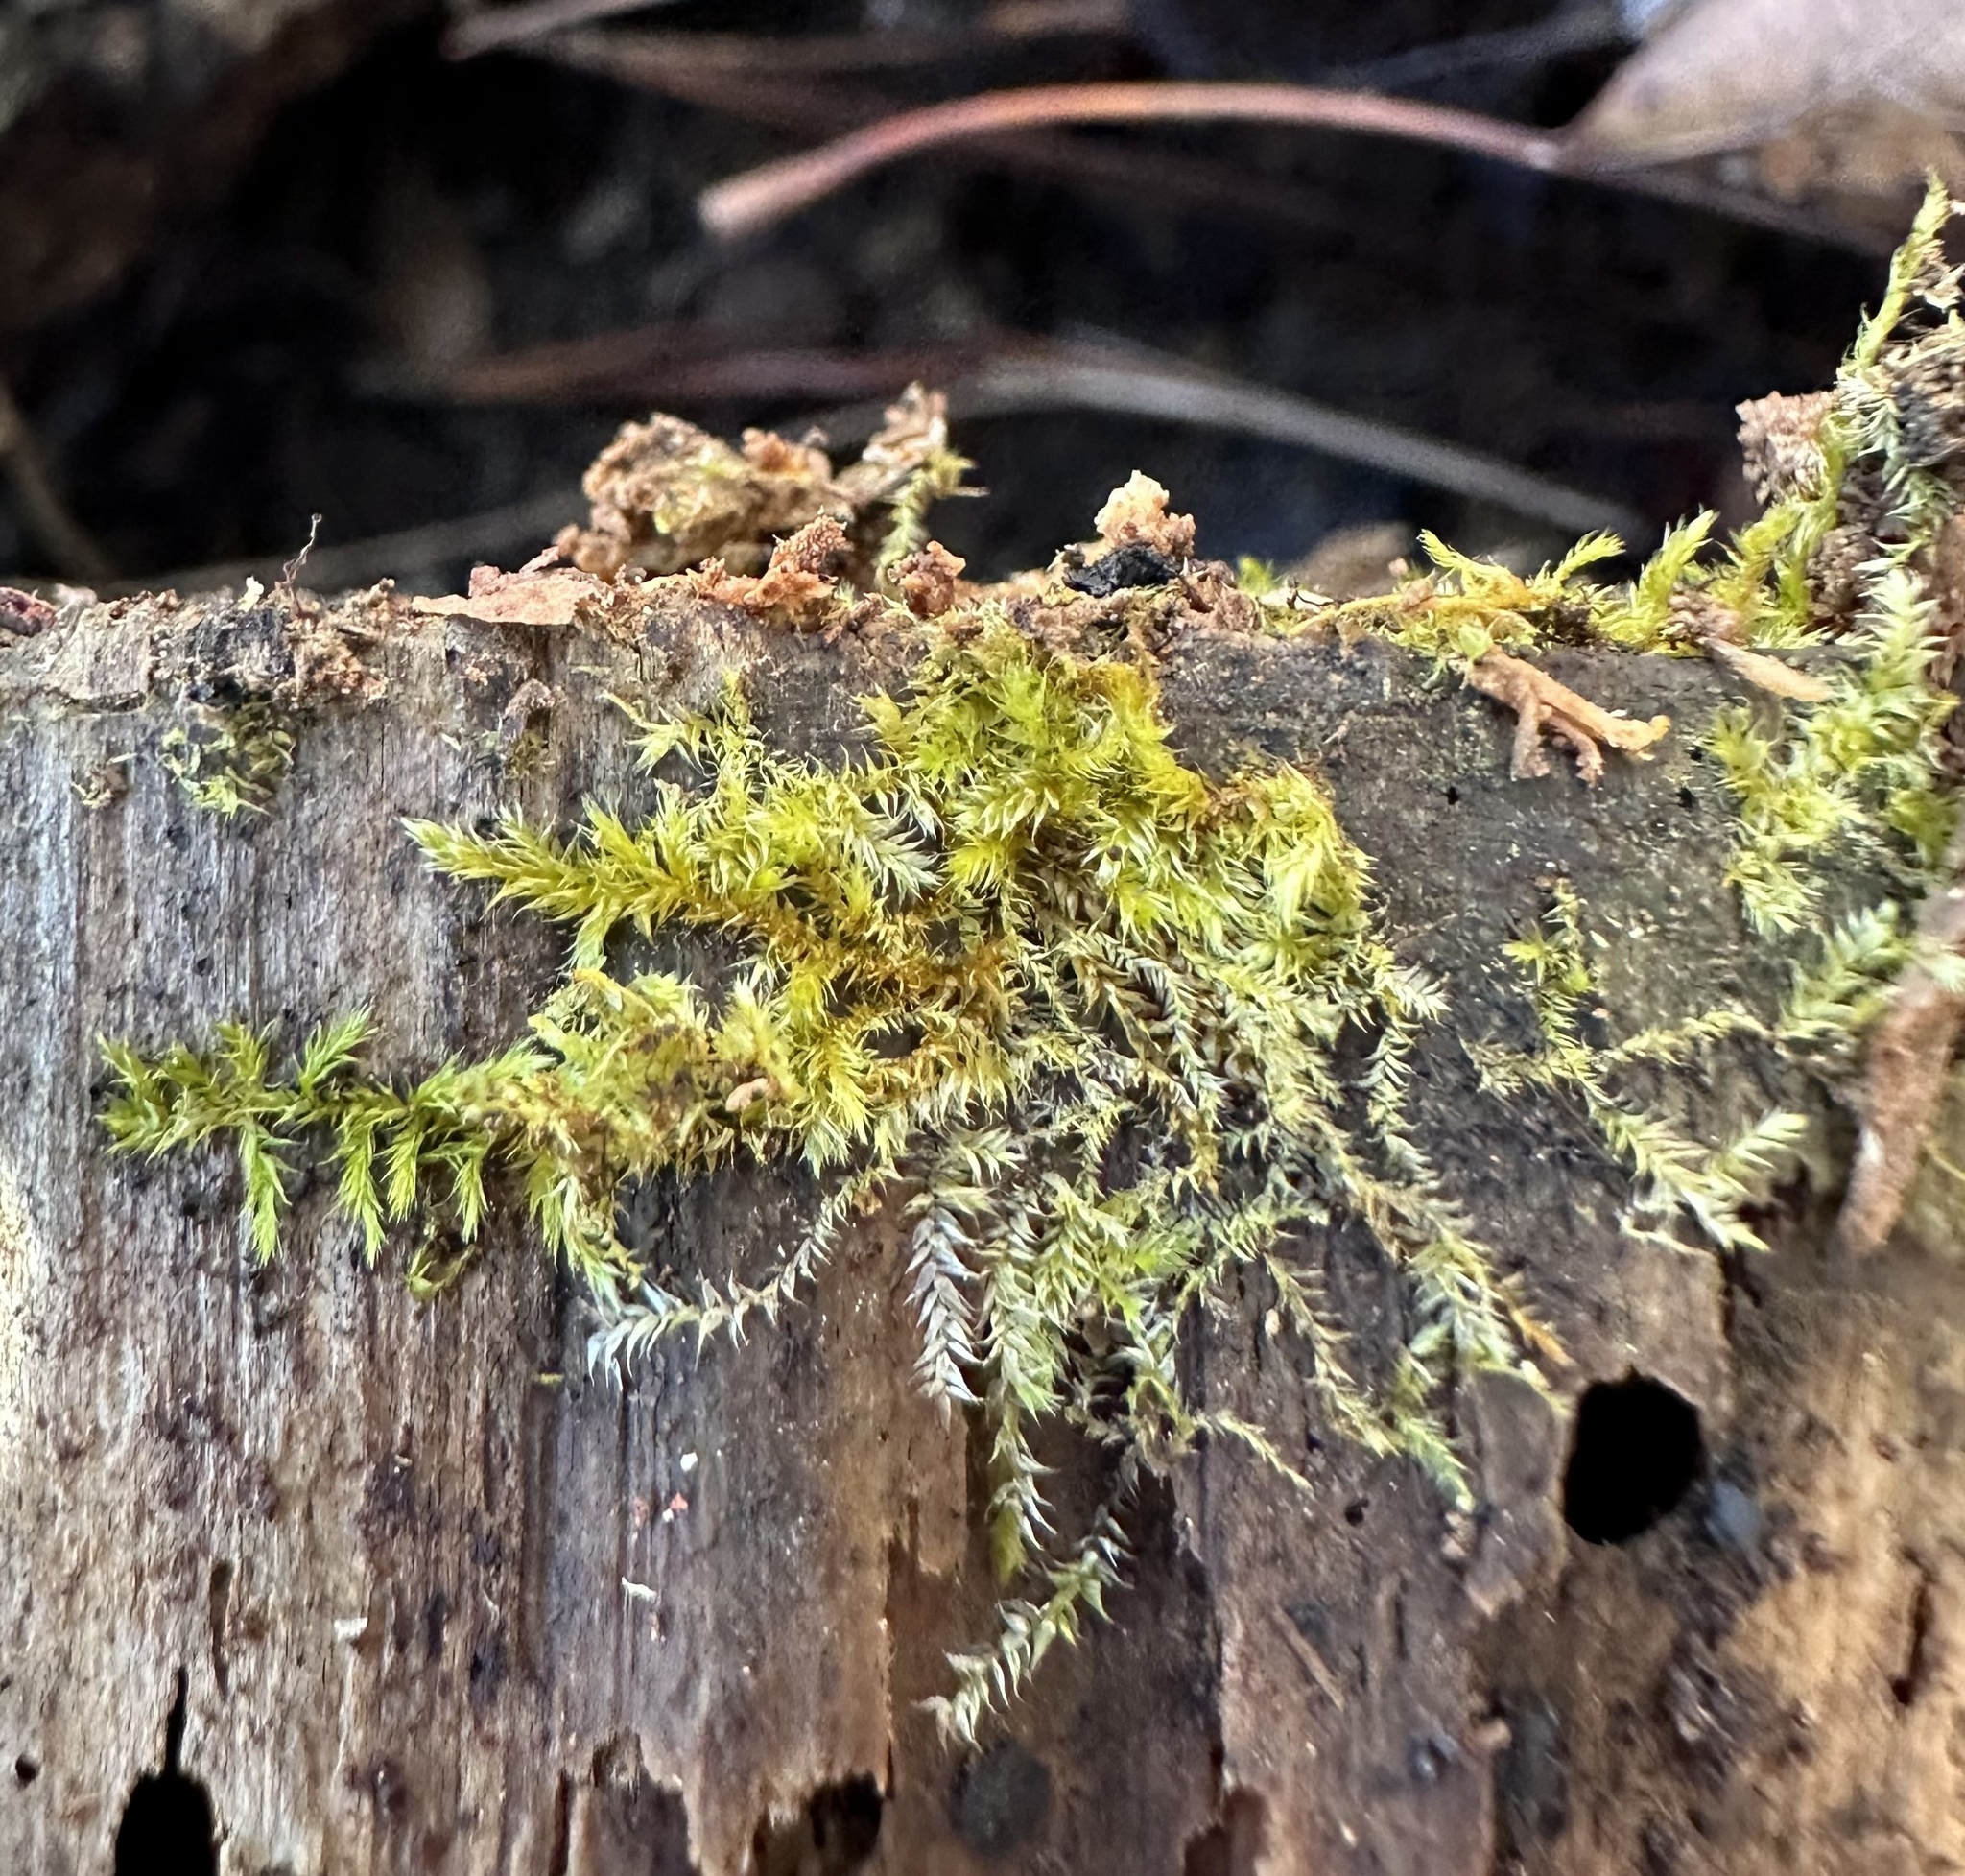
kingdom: Plantae
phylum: Bryophyta
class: Bryopsida
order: Hypnales
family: Pylaisiadelphaceae
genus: Platygyrium
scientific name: Platygyrium repens
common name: Flat-brocade moss
